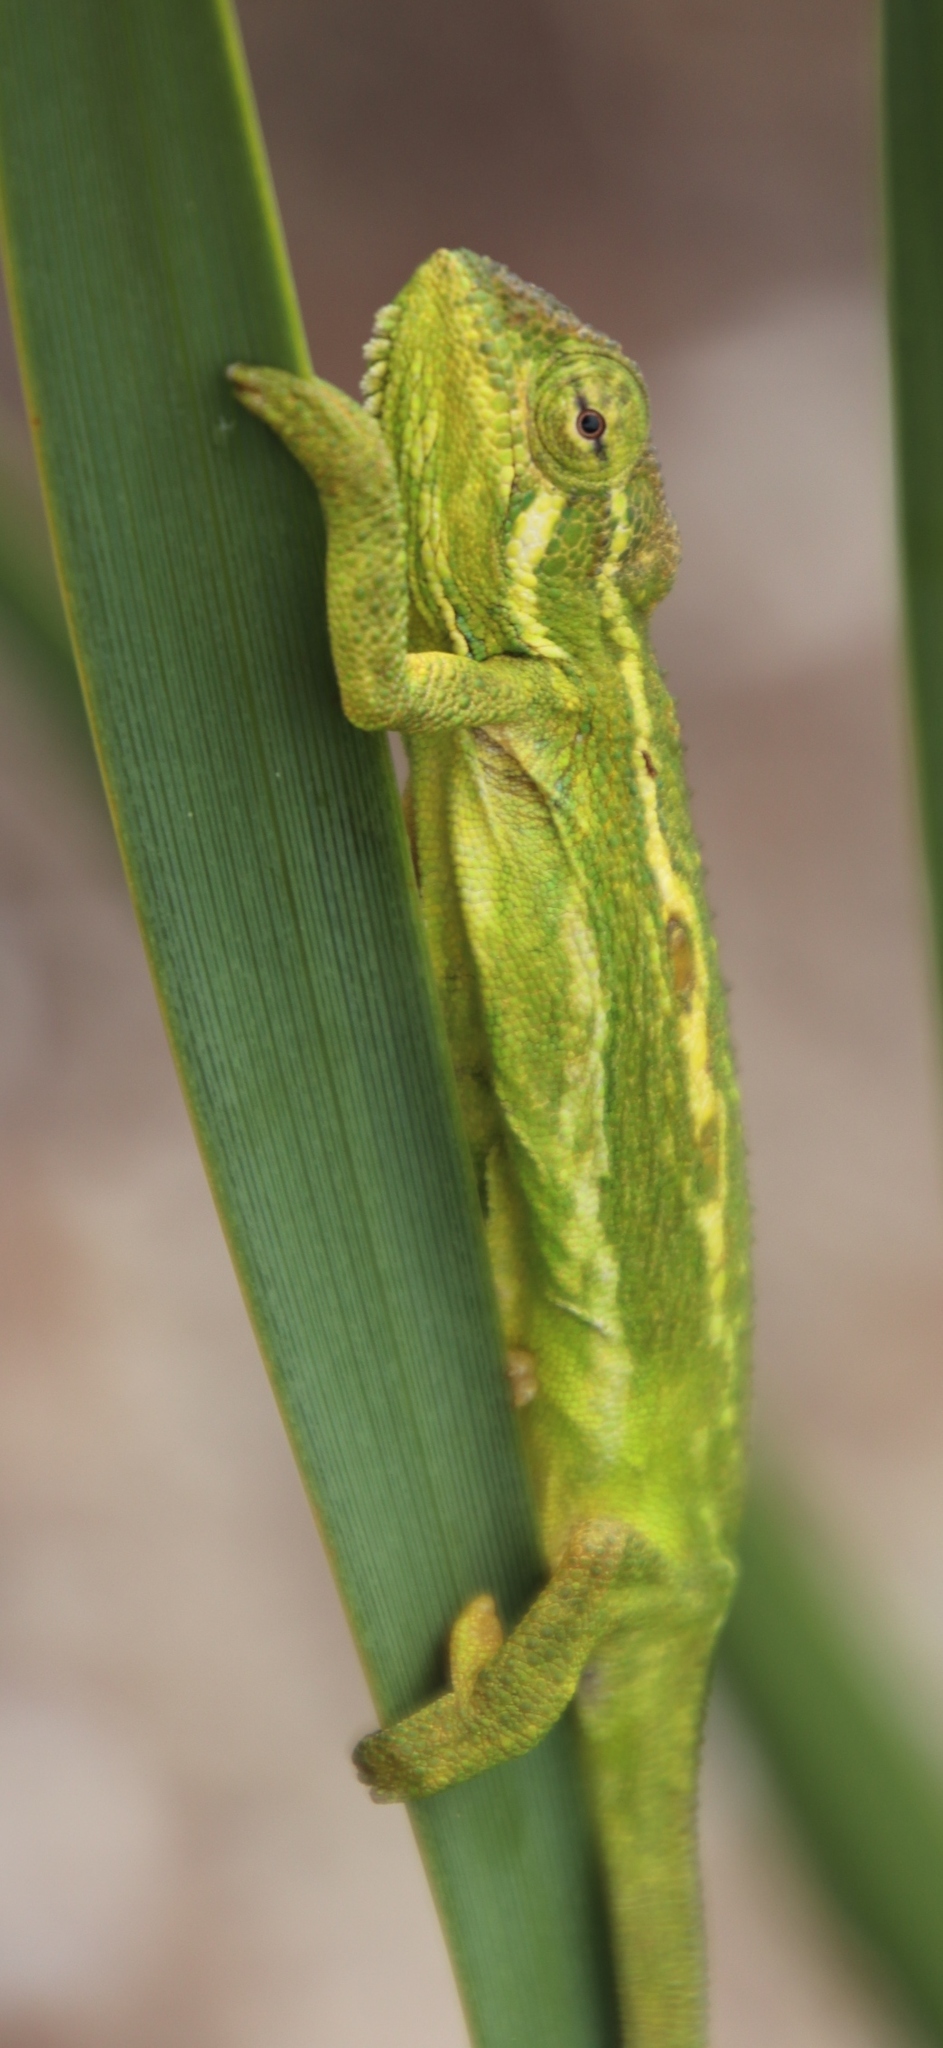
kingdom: Animalia
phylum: Chordata
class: Squamata
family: Chamaeleonidae
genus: Bradypodion
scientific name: Bradypodion pumilum
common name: Cape dwarf chameleon
